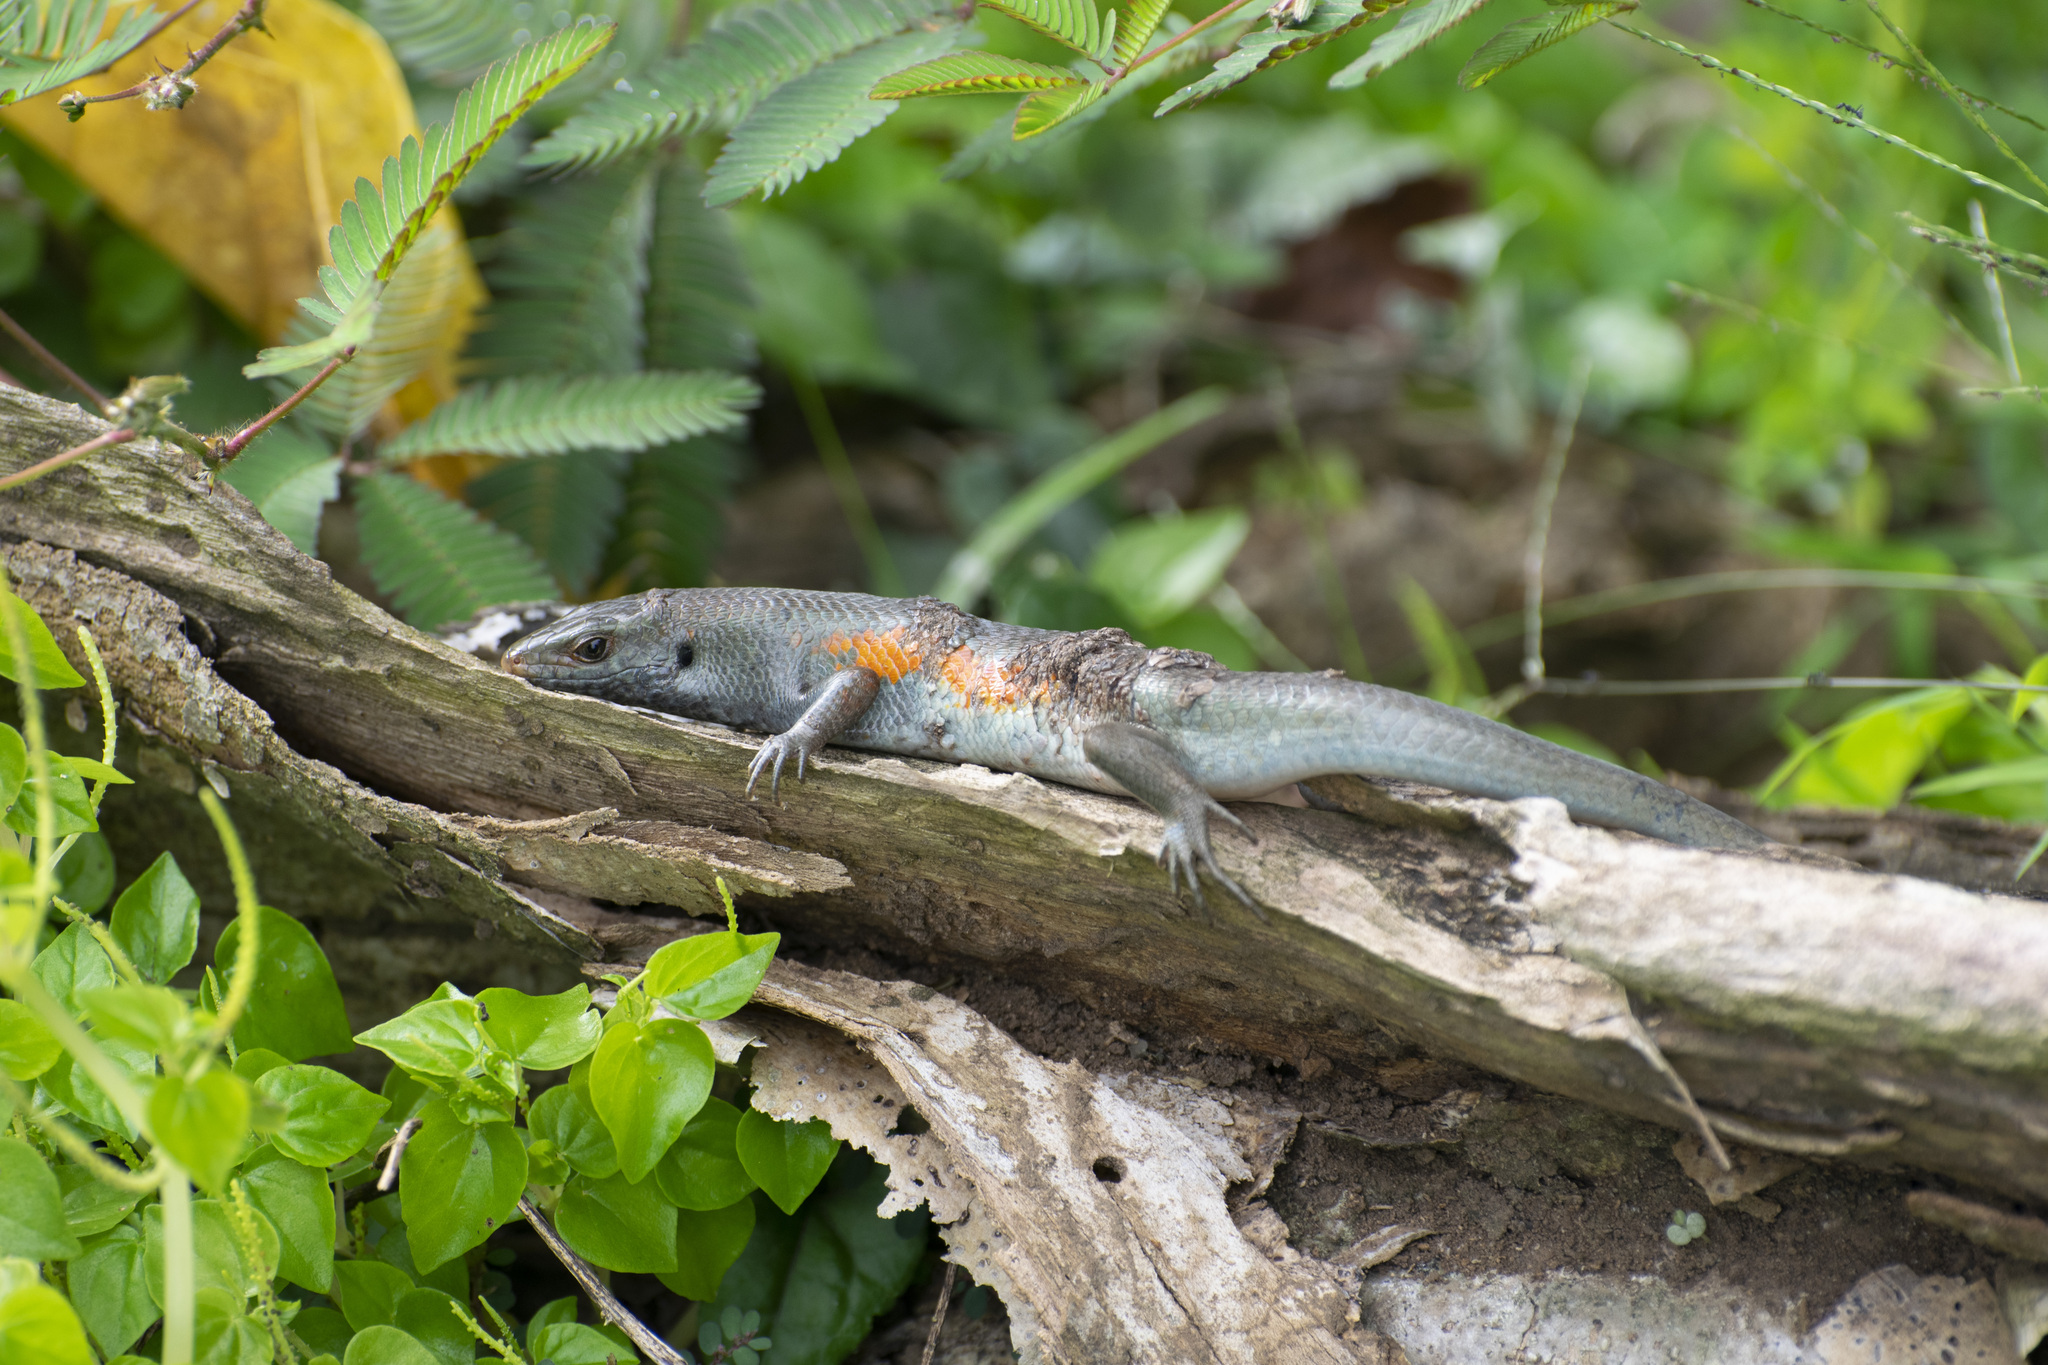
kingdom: Animalia
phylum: Chordata
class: Squamata
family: Scincidae
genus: Eutropis
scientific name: Eutropis multifasciata
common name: Common mabuya
